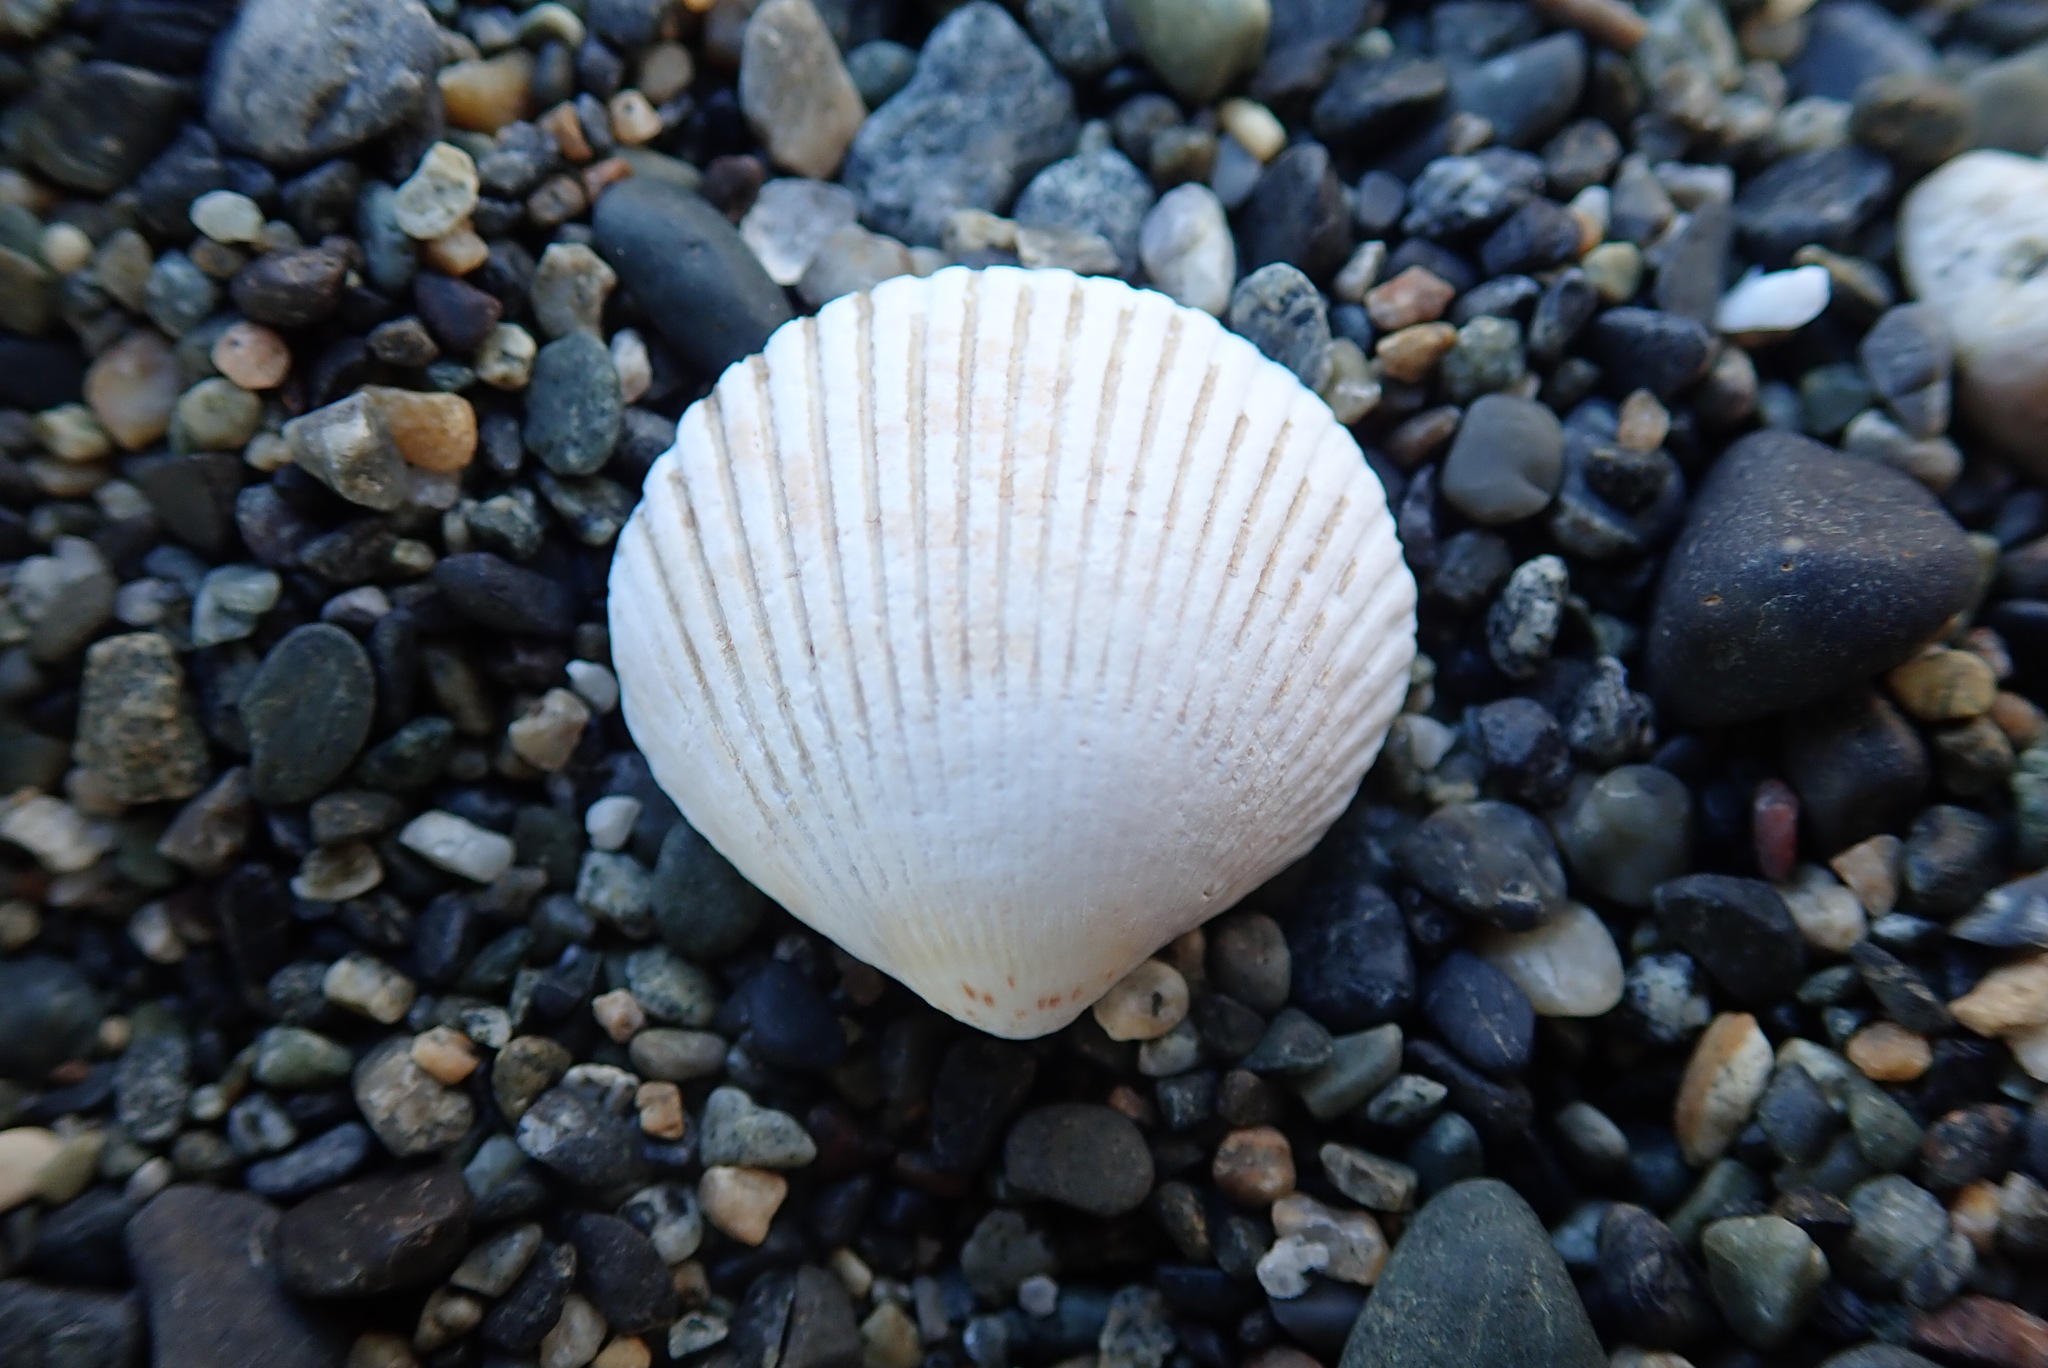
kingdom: Animalia
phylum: Mollusca
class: Bivalvia
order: Cardiida
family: Cardiidae
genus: Clinocardium
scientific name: Clinocardium nuttallii
